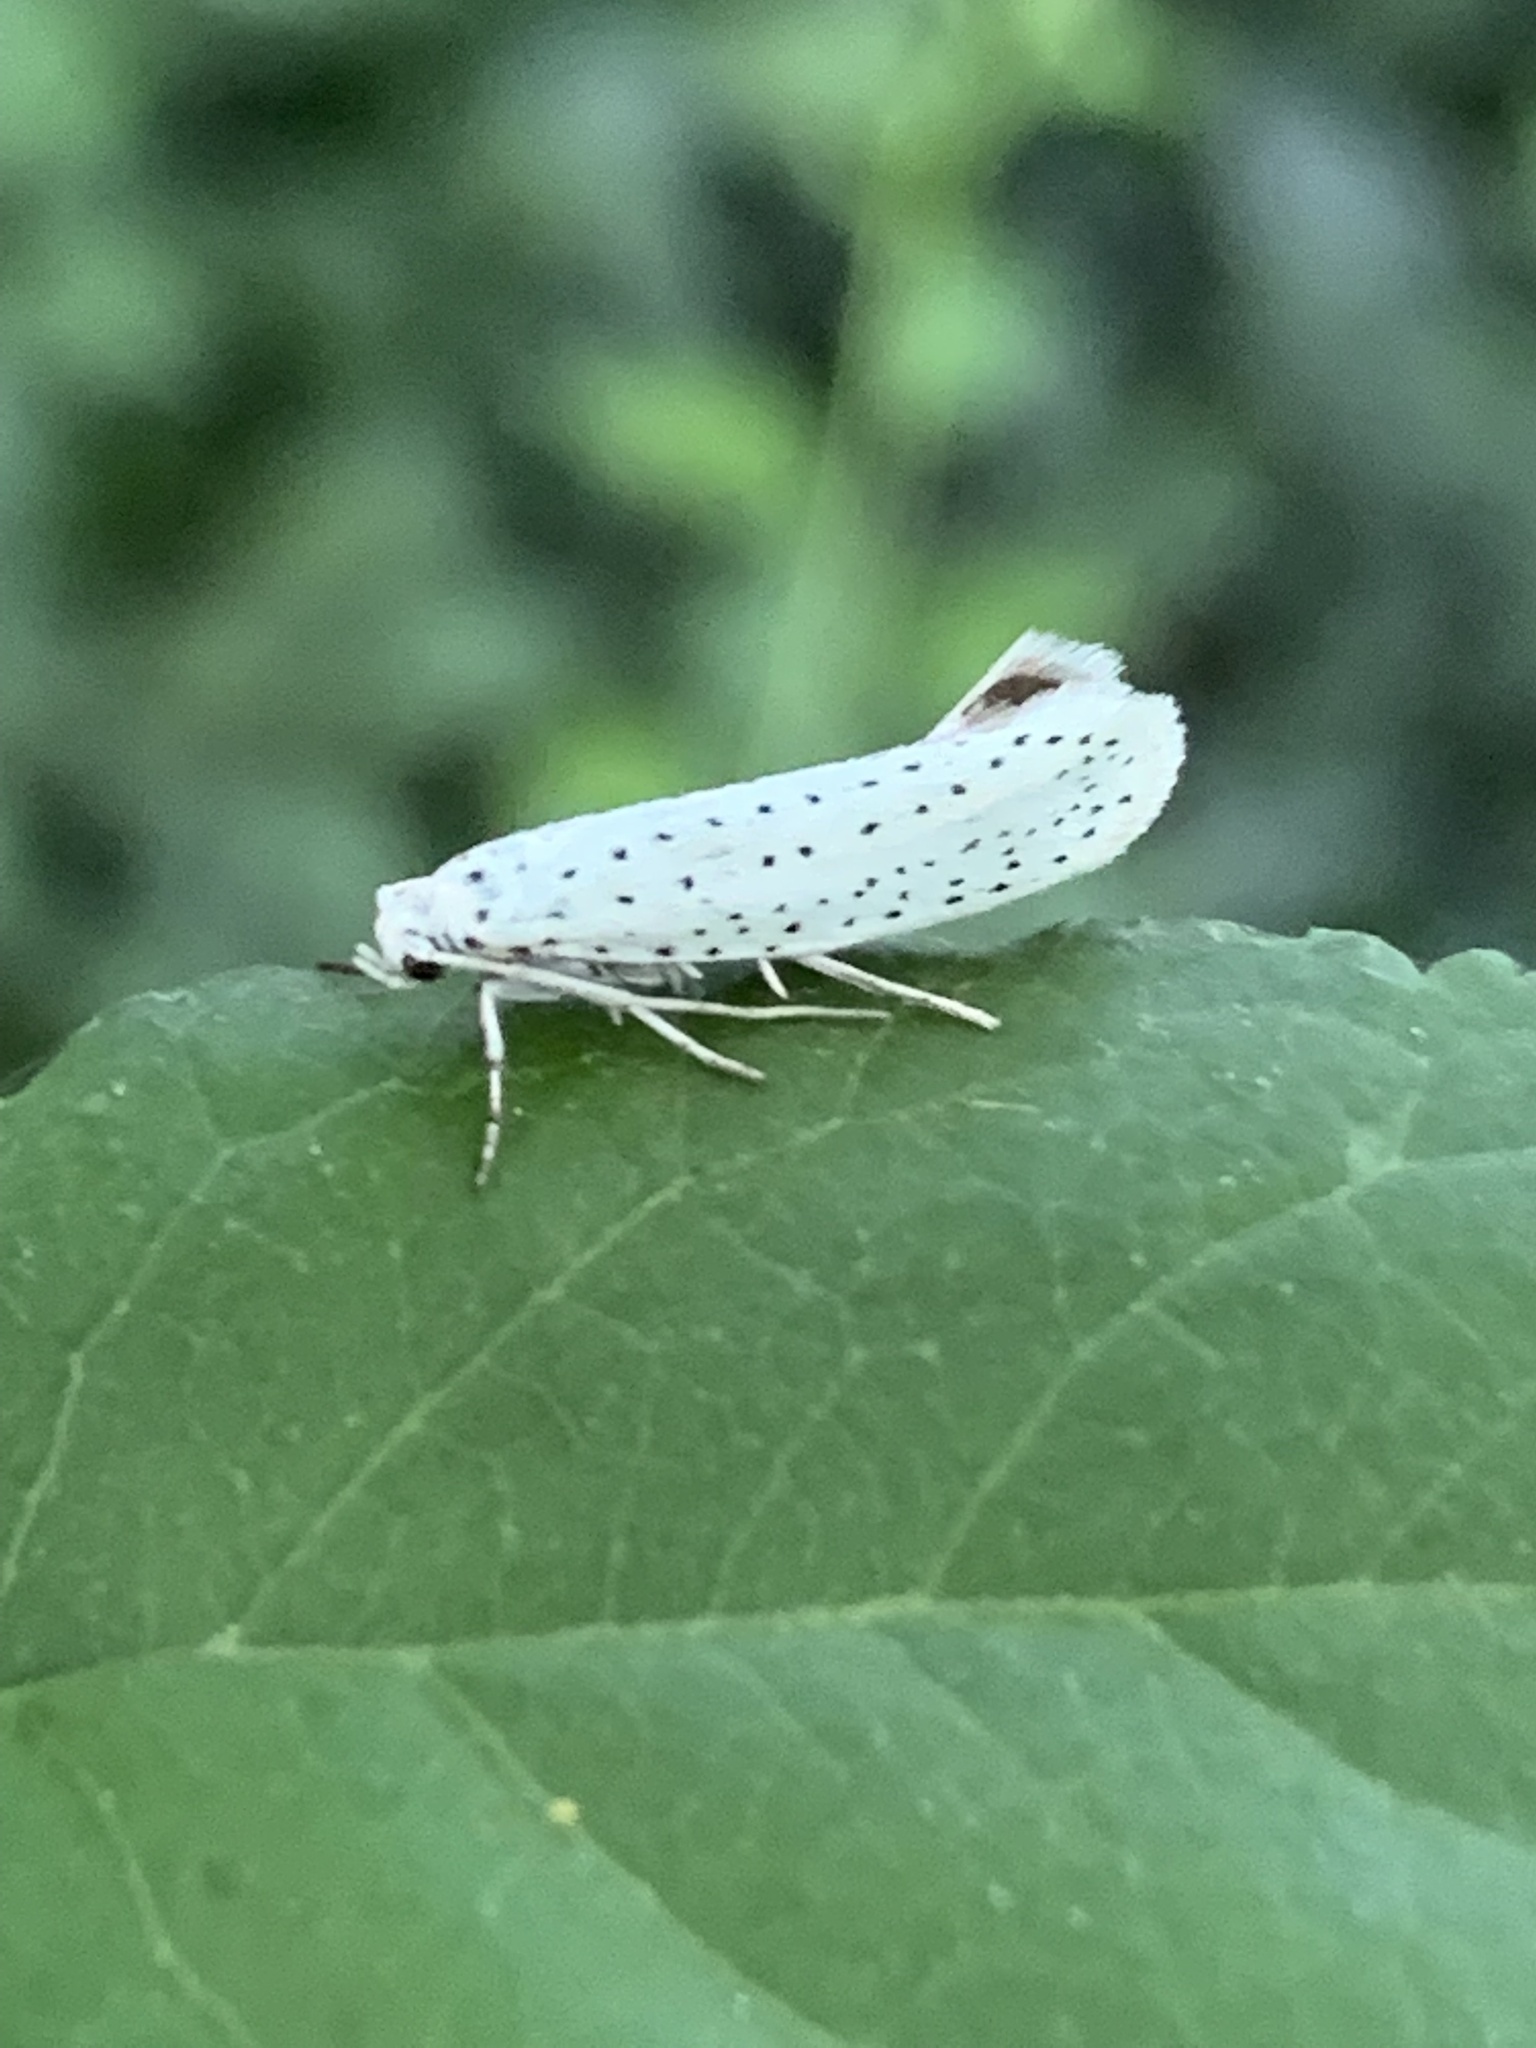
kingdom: Animalia
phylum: Arthropoda
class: Insecta
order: Lepidoptera
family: Yponomeutidae
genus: Yponomeuta
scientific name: Yponomeuta evonymella
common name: Bird-cherry ermine
